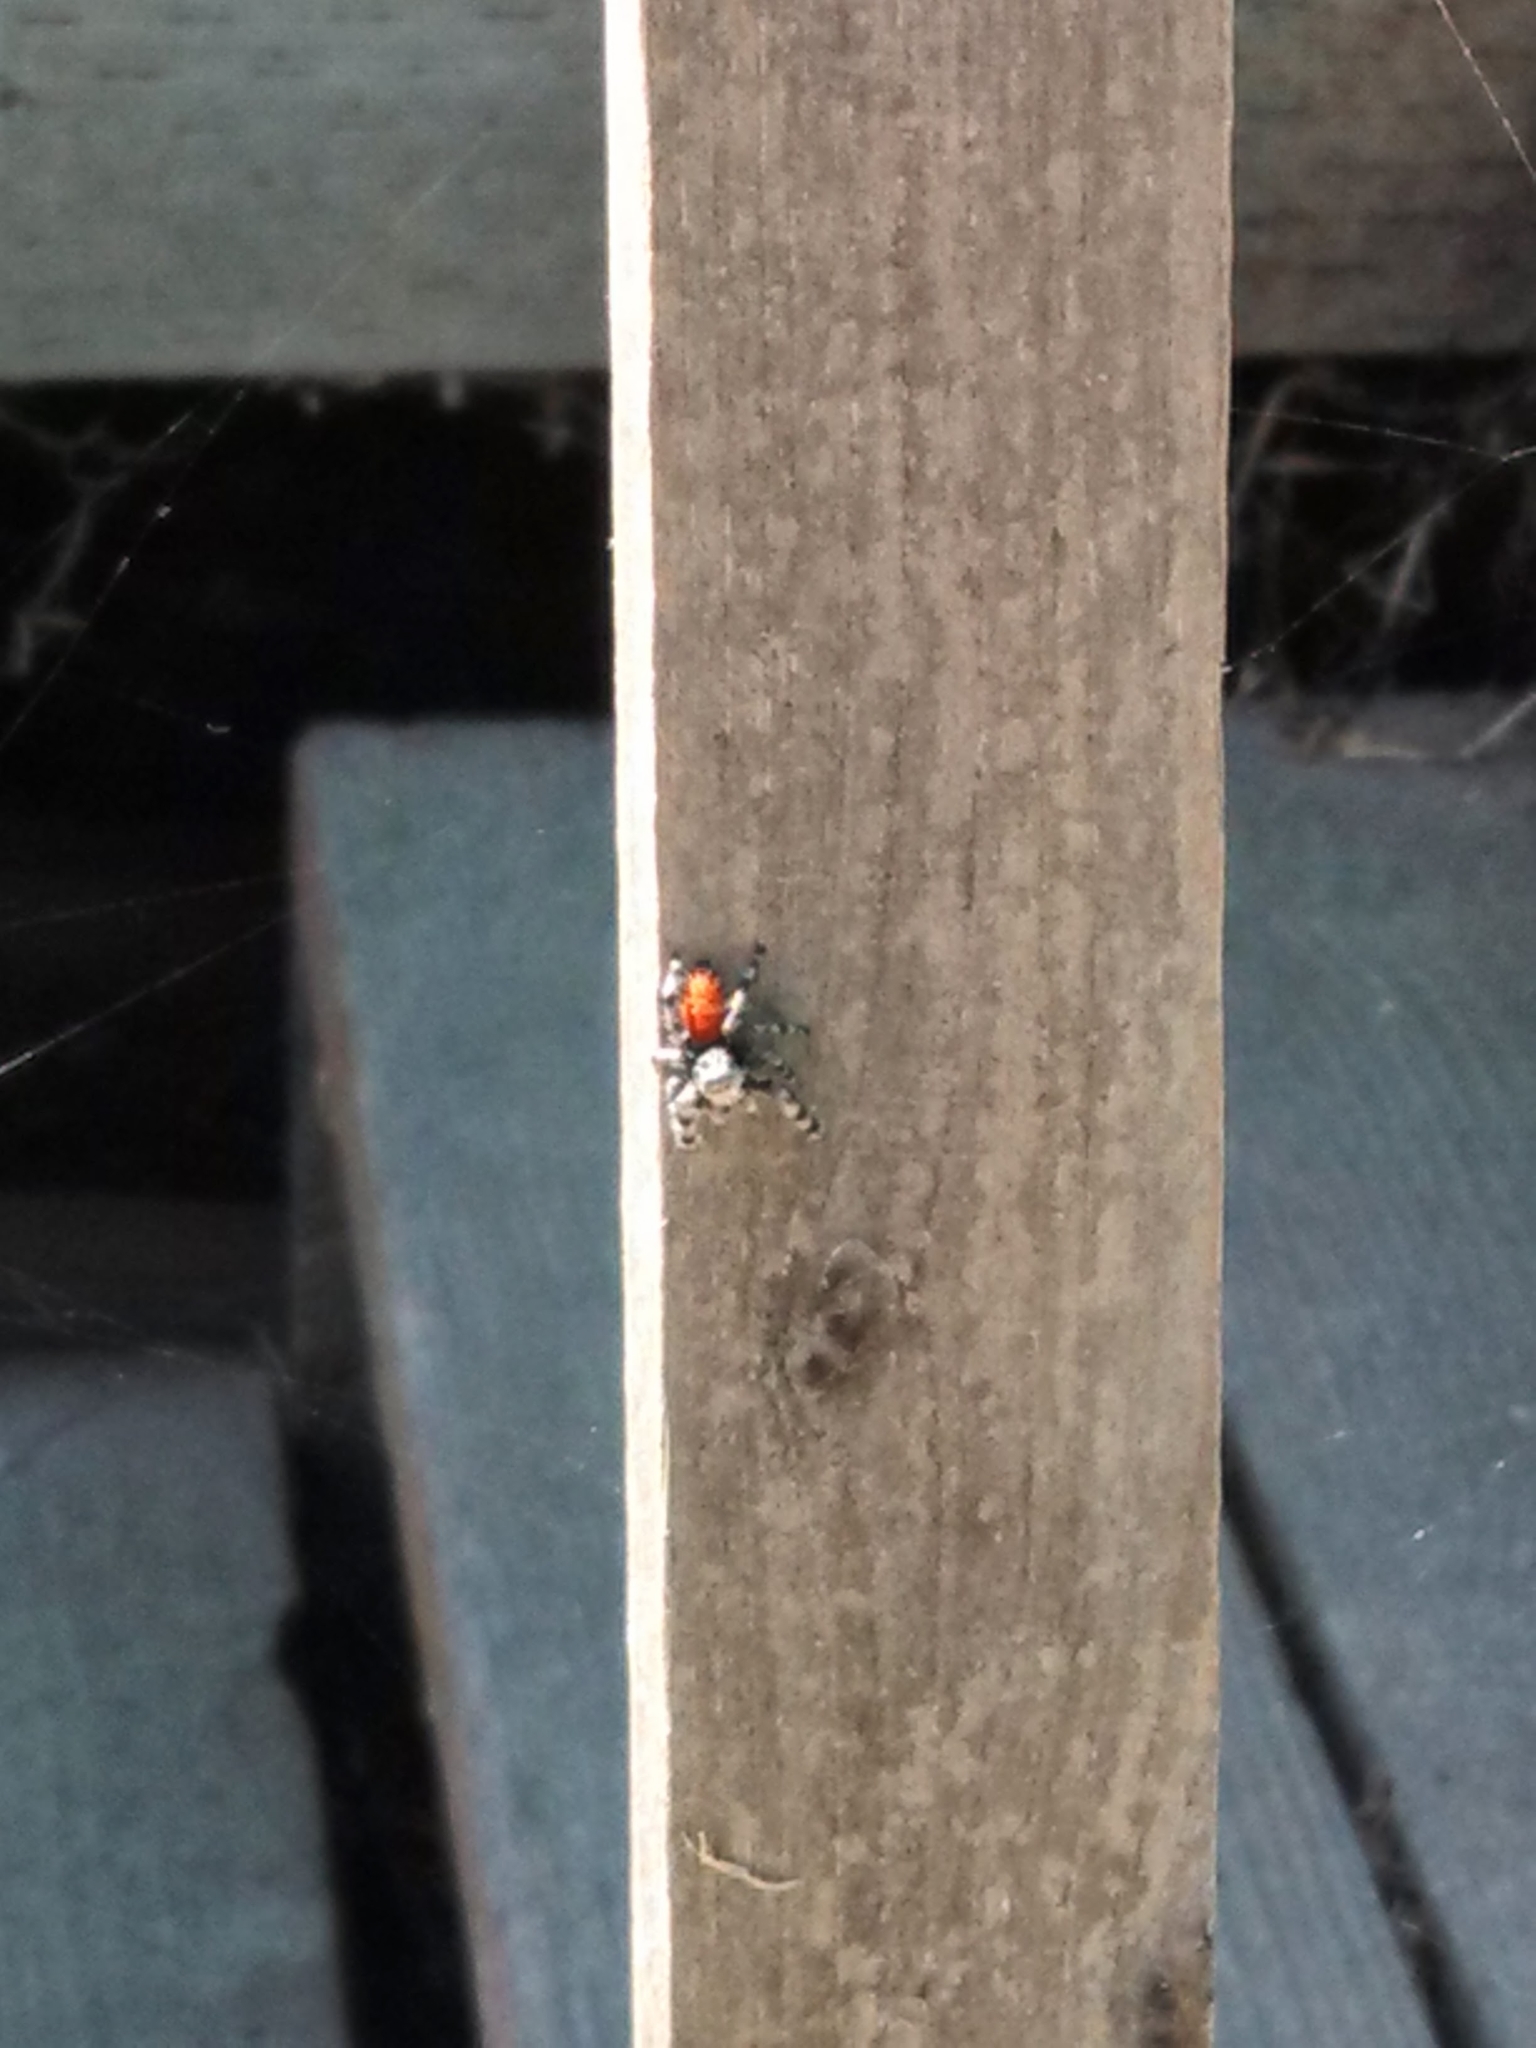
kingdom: Animalia
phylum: Arthropoda
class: Arachnida
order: Araneae
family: Salticidae
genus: Phidippus
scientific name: Phidippus adumbratus
